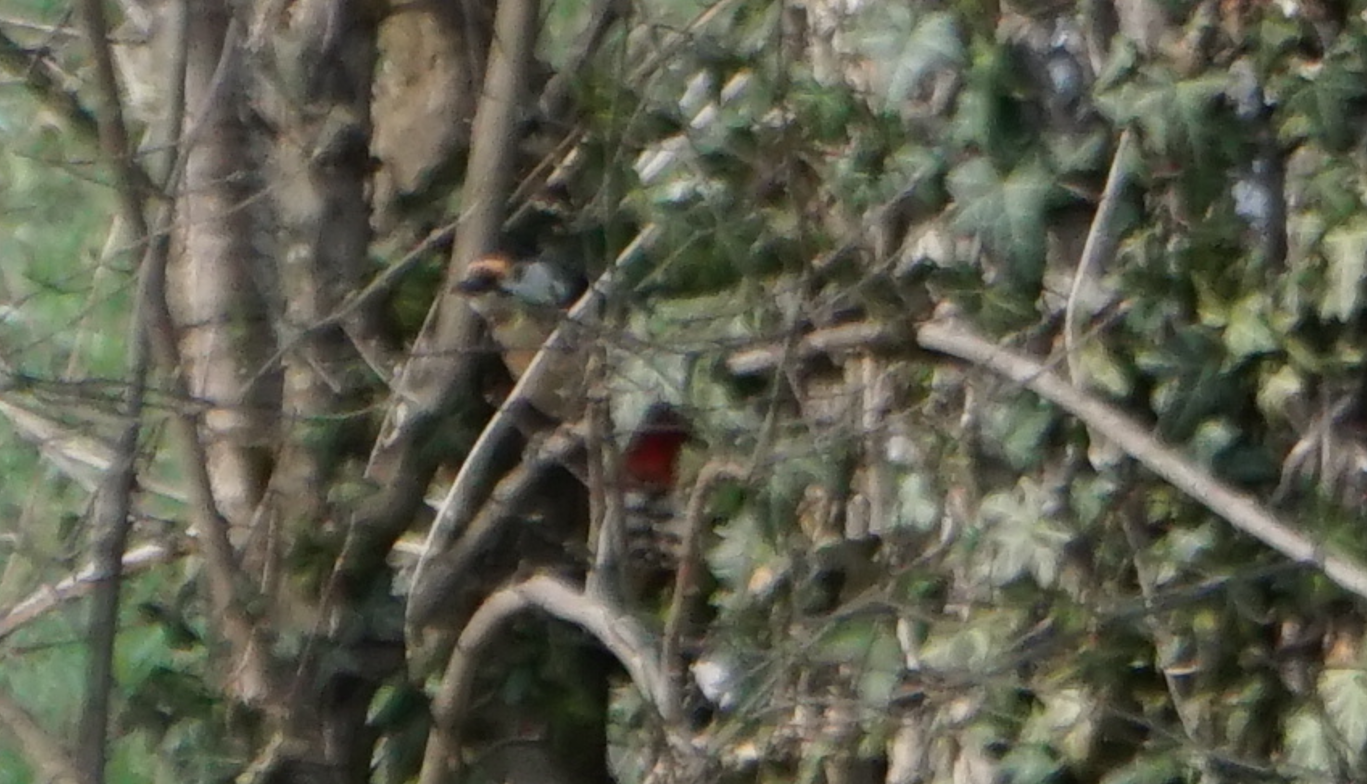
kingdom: Animalia
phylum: Chordata
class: Aves
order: Piciformes
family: Picidae
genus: Dendrocopos
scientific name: Dendrocopos major
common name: Great spotted woodpecker
